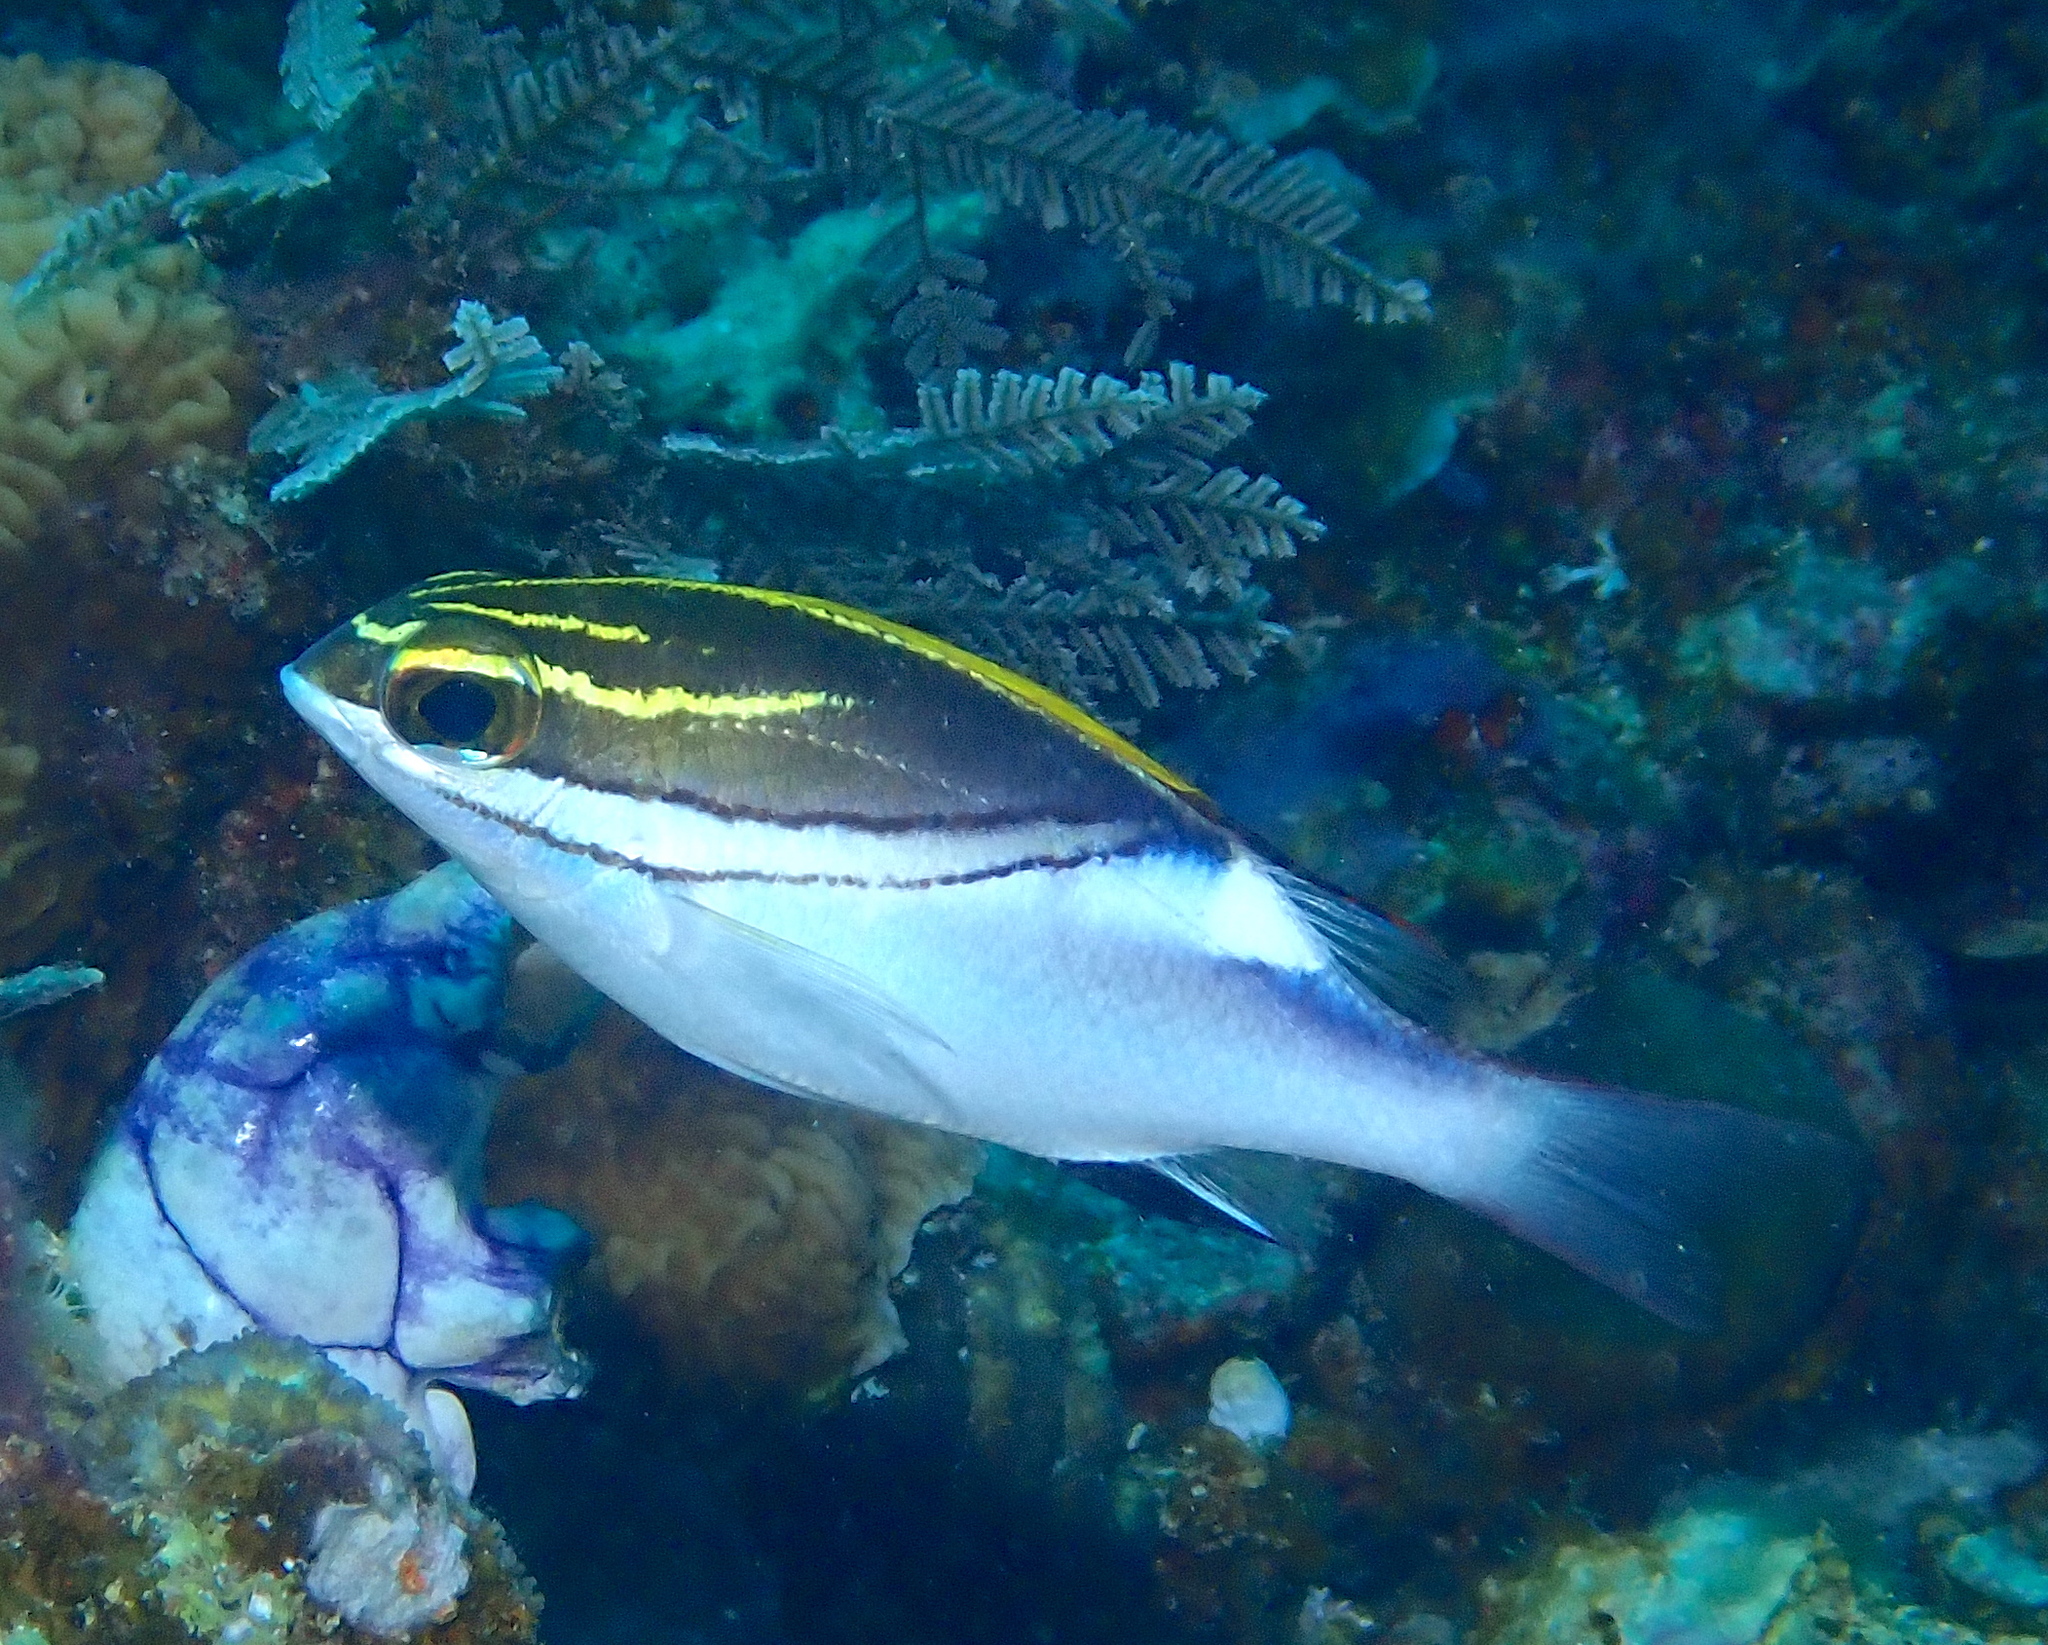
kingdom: Animalia
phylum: Chordata
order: Perciformes
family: Nemipteridae
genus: Scolopsis
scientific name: Scolopsis bilineata
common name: Two-lined monocle bream
